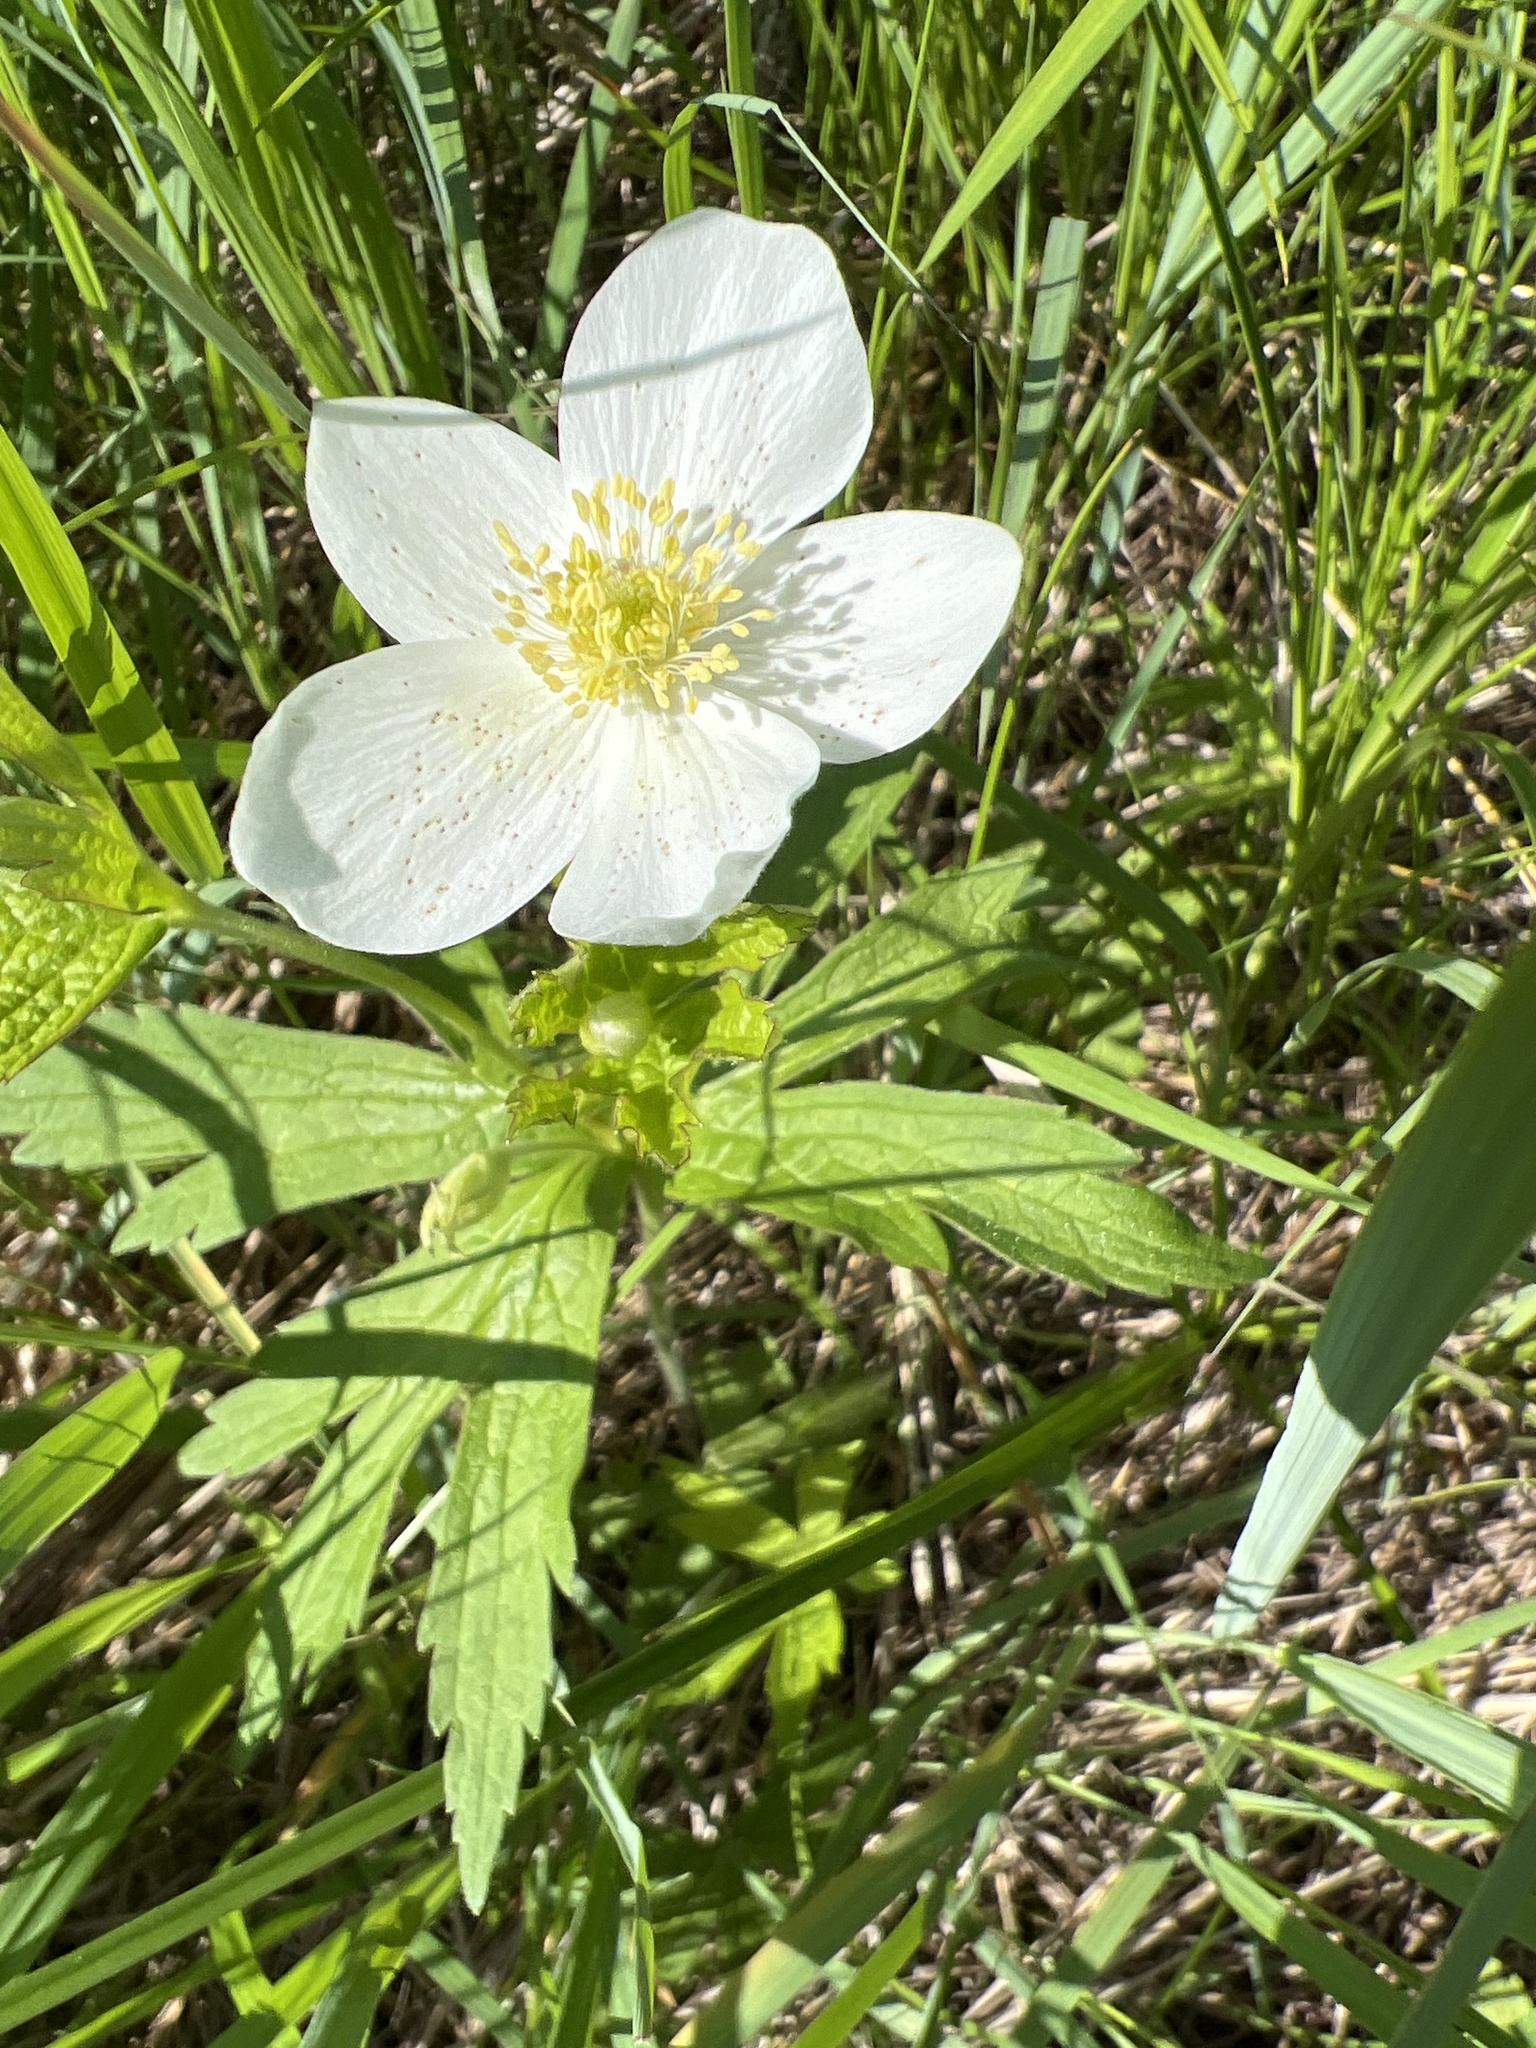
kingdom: Plantae
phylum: Tracheophyta
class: Magnoliopsida
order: Ranunculales
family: Ranunculaceae
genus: Anemonastrum
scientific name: Anemonastrum canadense
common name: Canada anemone
